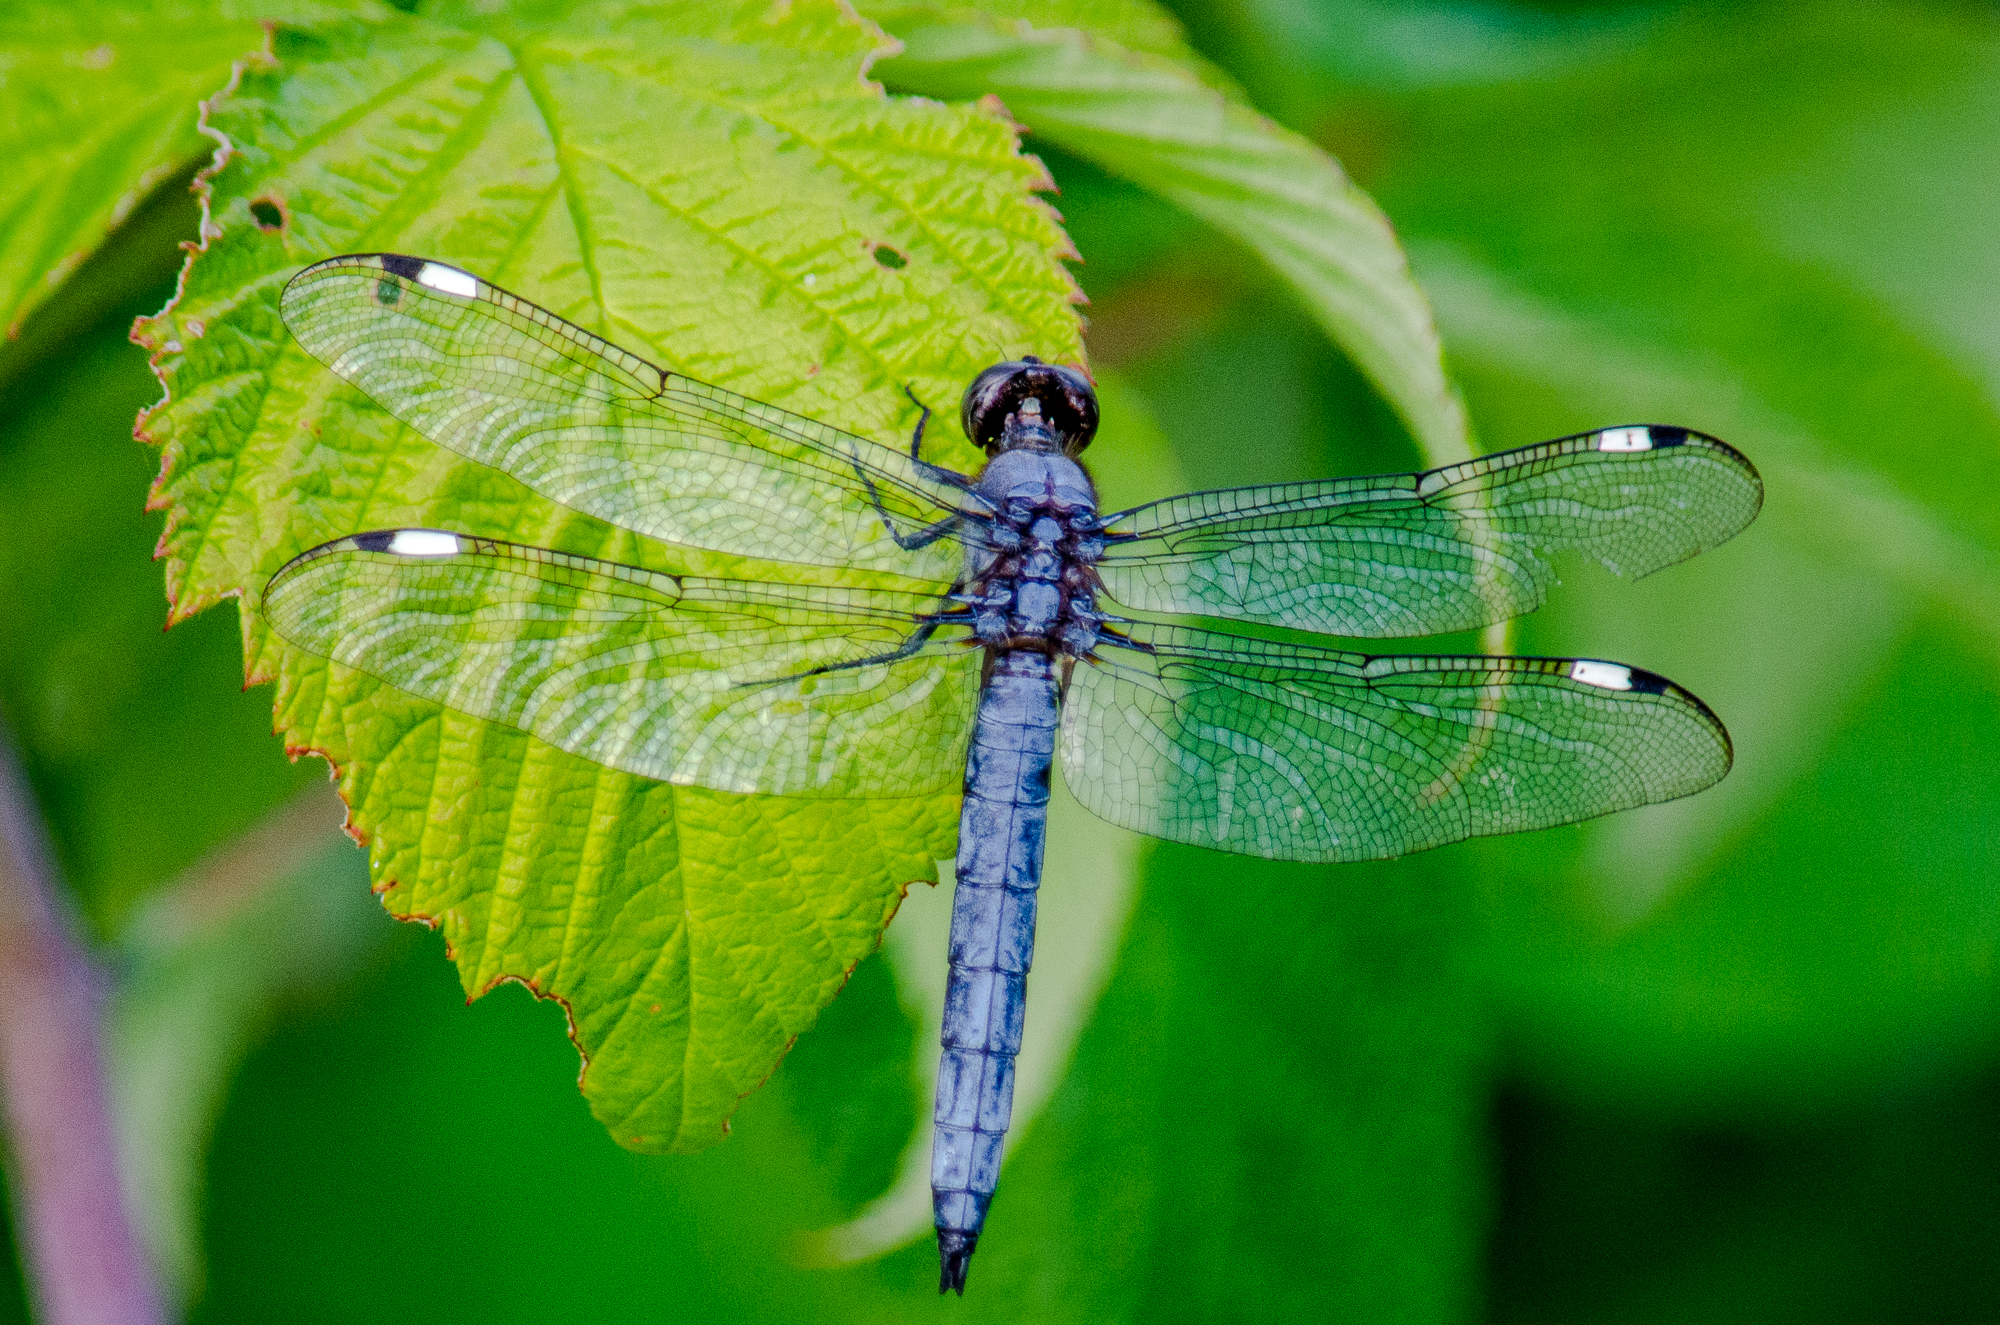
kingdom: Animalia
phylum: Arthropoda
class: Insecta
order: Odonata
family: Libellulidae
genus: Libellula
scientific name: Libellula cyanea
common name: Spangled skimmer
